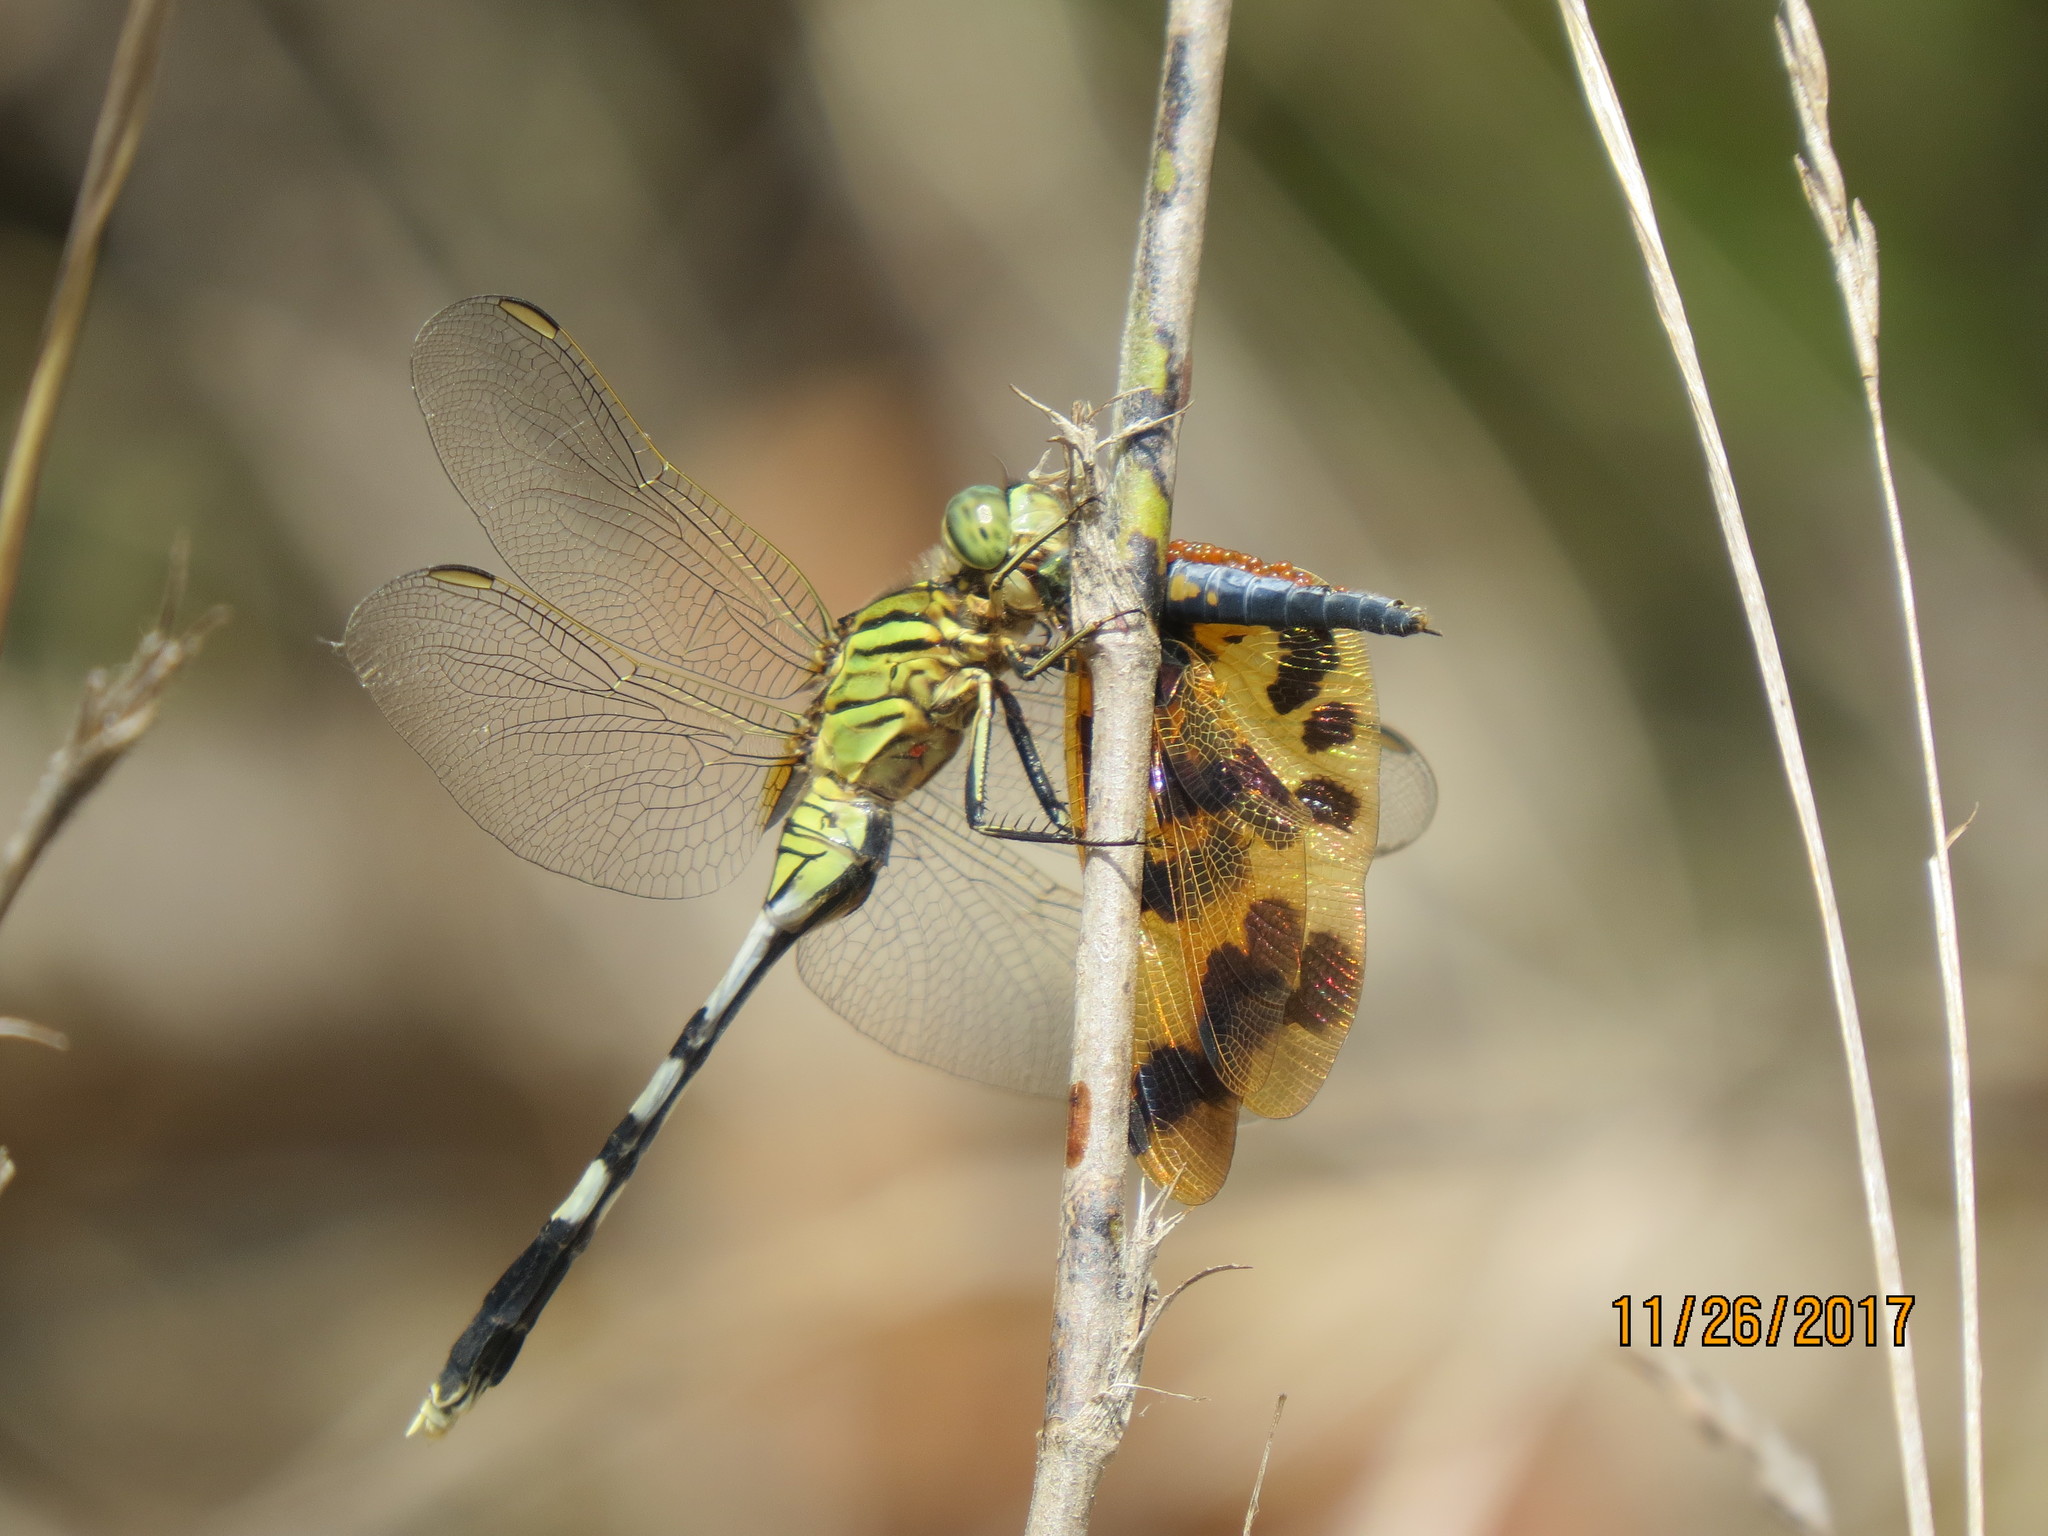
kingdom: Animalia
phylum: Arthropoda
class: Insecta
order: Odonata
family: Libellulidae
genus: Orthetrum
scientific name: Orthetrum sabina
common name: Slender skimmer
